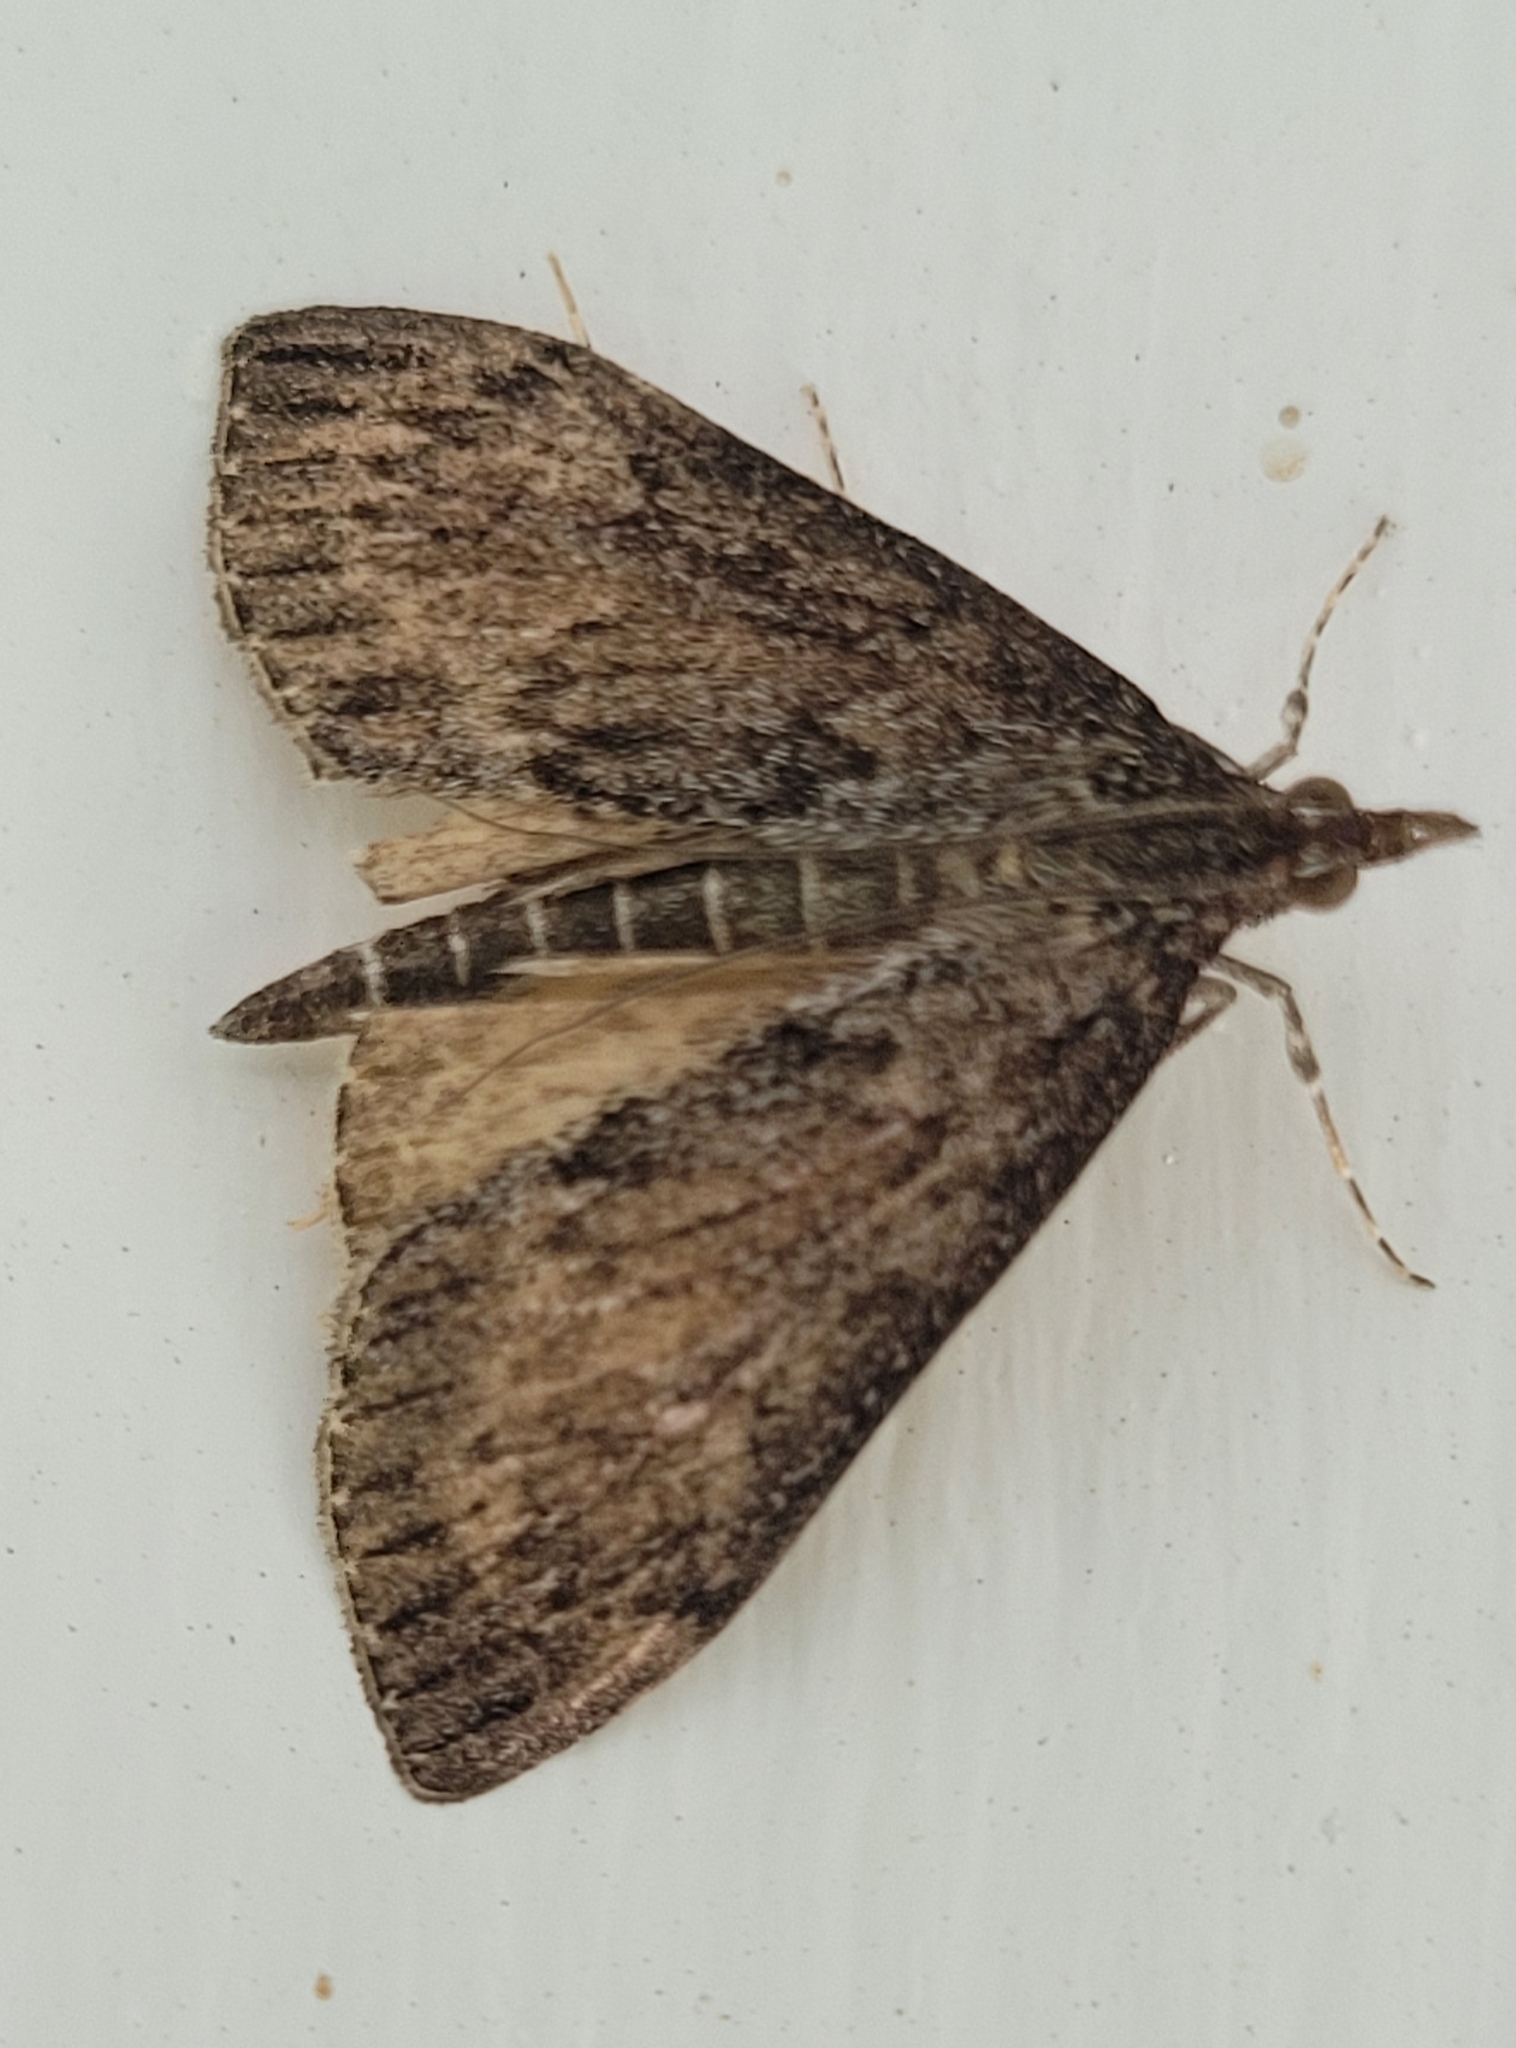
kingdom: Animalia
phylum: Arthropoda
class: Insecta
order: Lepidoptera
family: Crambidae
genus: Saucrobotys
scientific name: Saucrobotys fumoferalis
